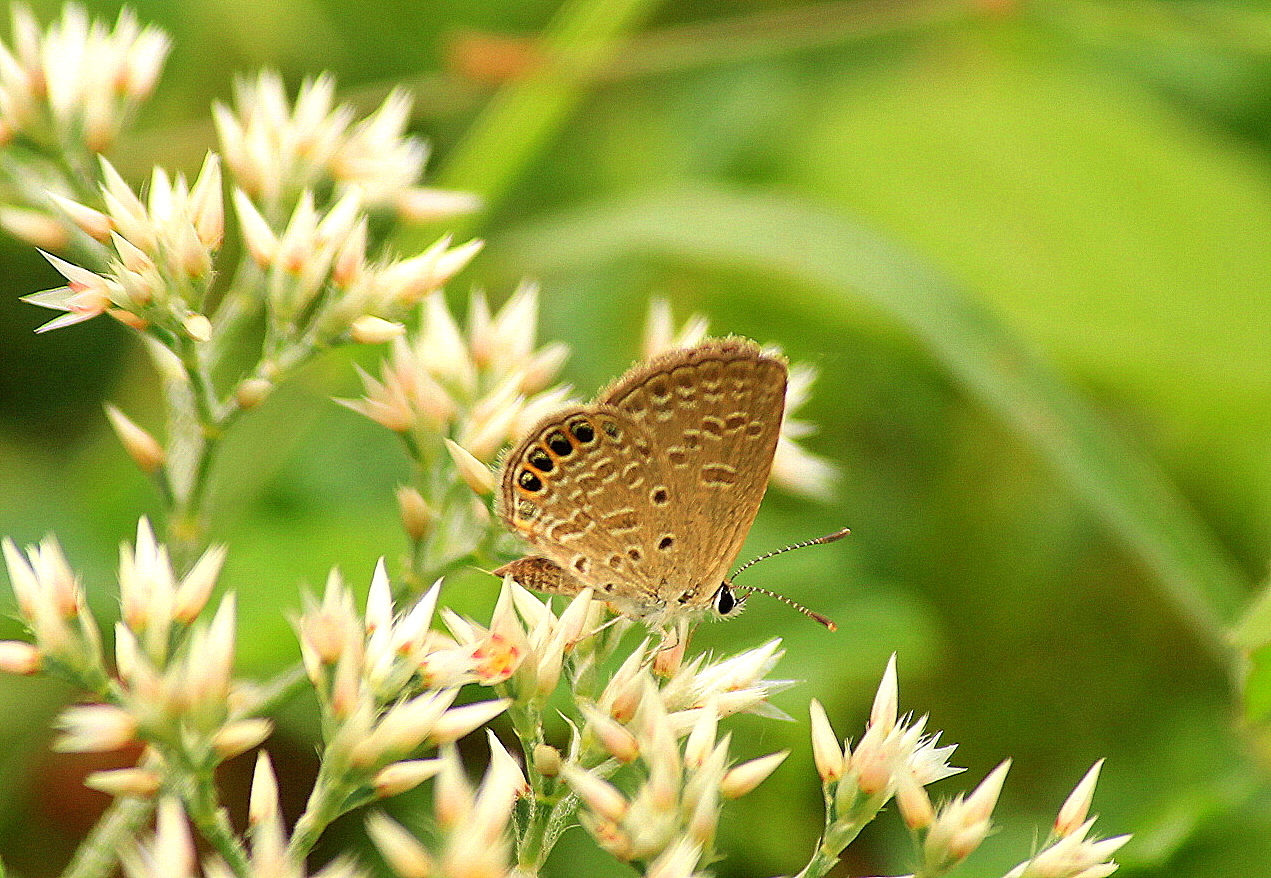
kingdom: Animalia
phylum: Arthropoda
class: Insecta
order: Lepidoptera
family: Lycaenidae
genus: Freyeria
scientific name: Freyeria putli
